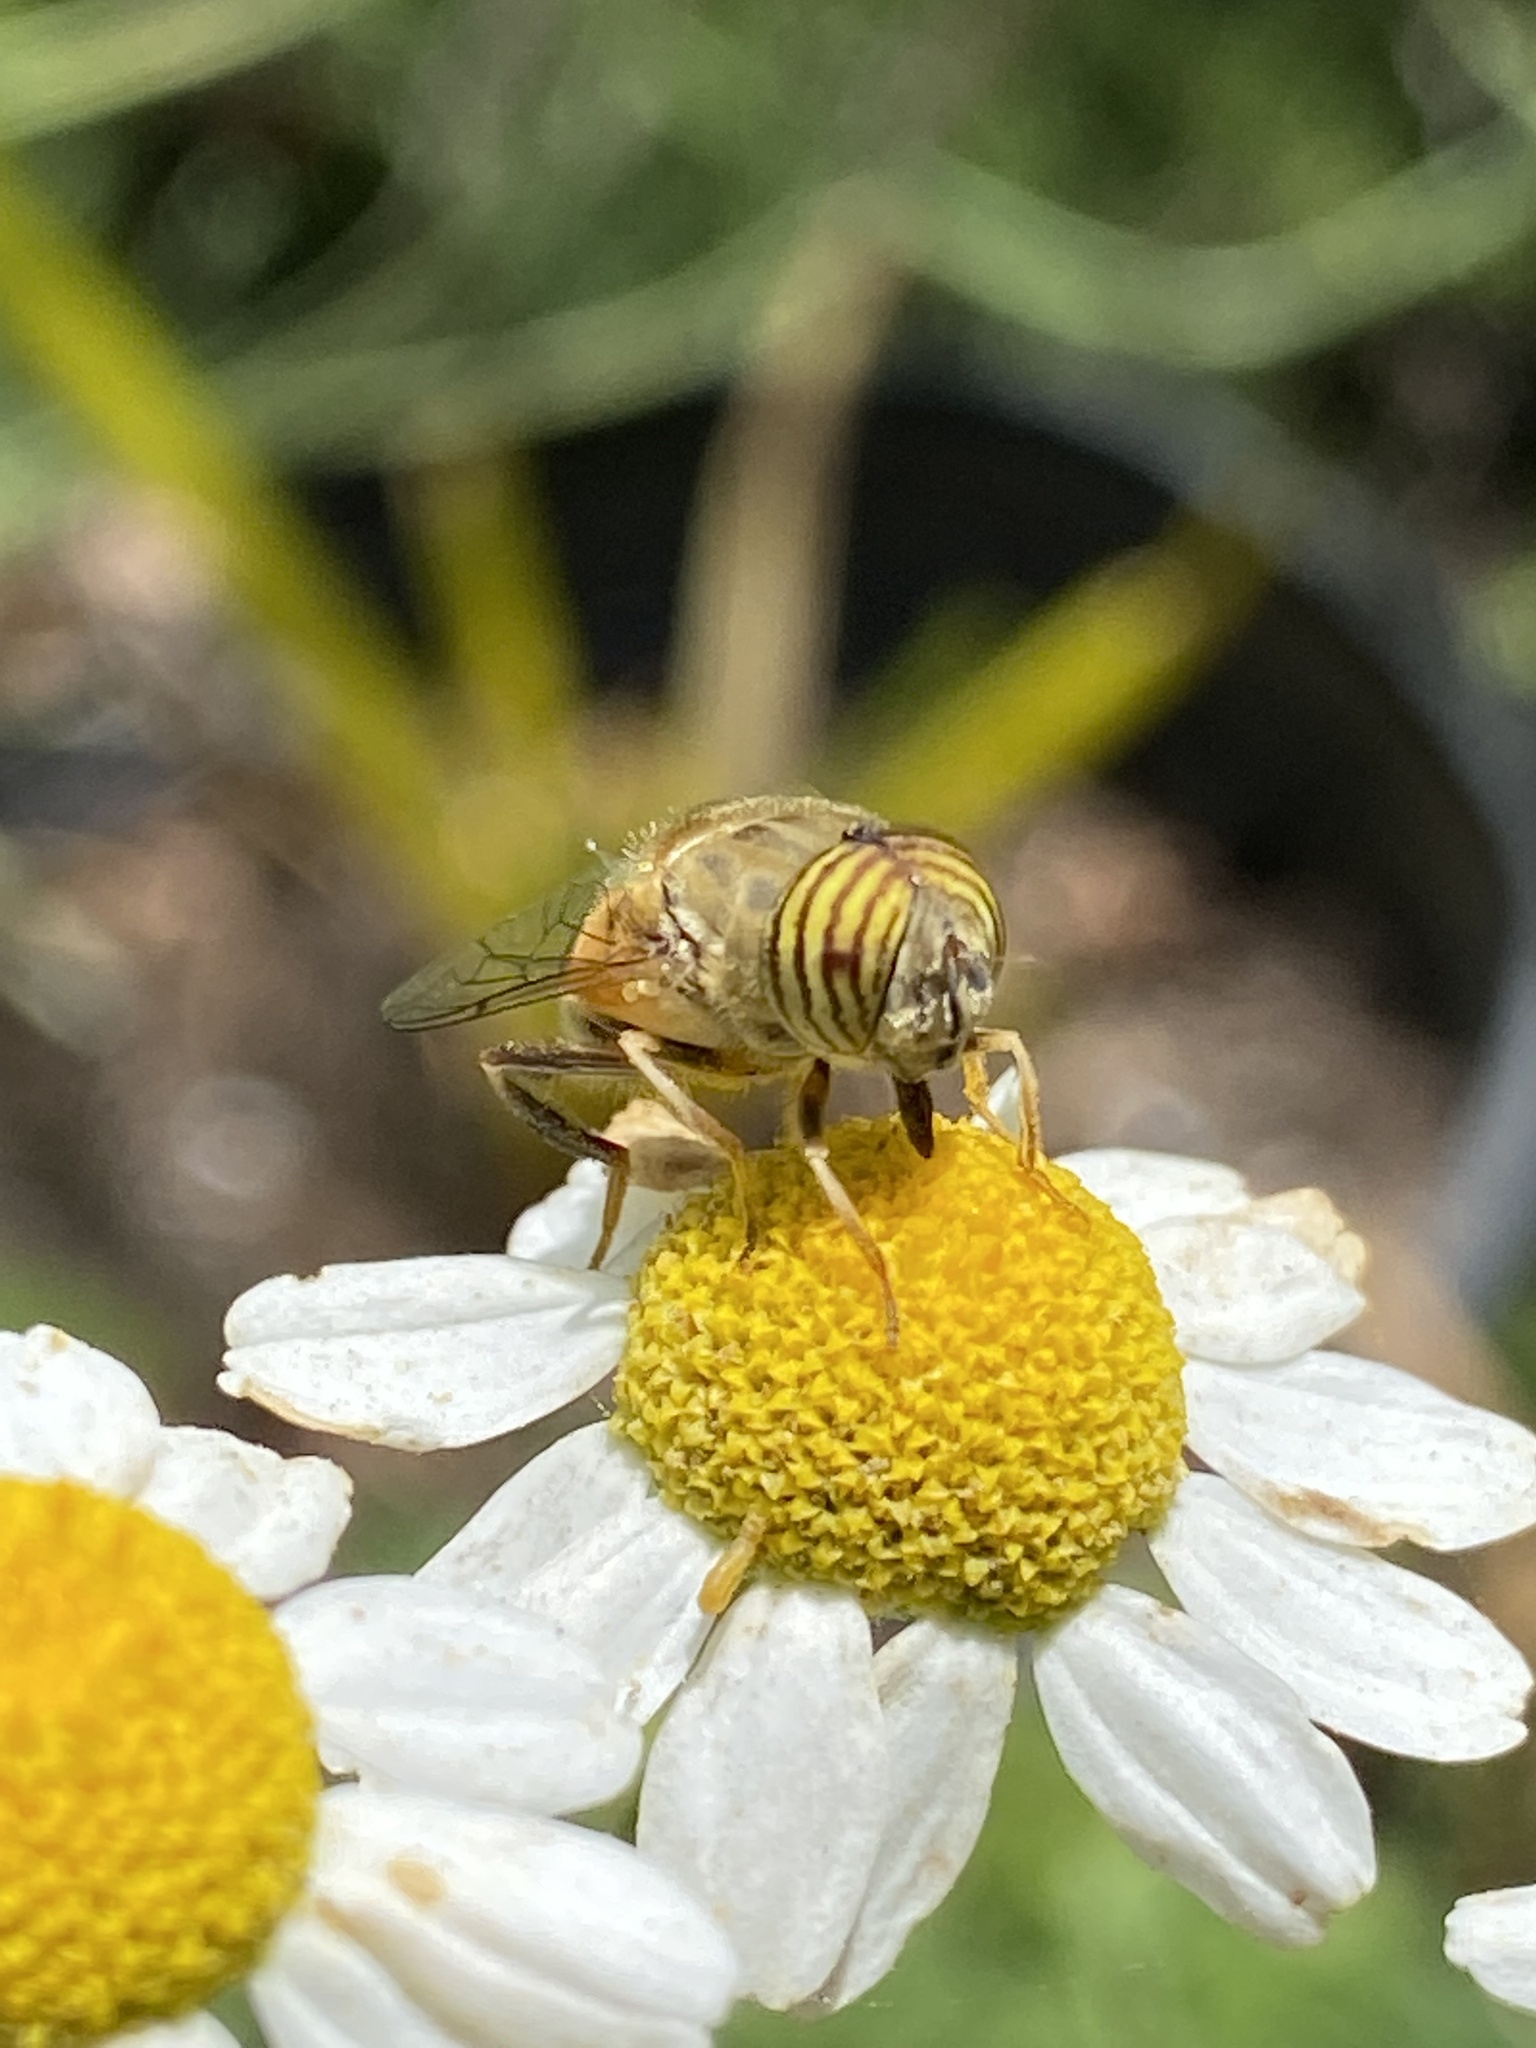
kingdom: Animalia
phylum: Arthropoda
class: Insecta
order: Diptera
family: Syrphidae
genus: Eristalinus
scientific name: Eristalinus taeniops
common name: Syrphid fly
